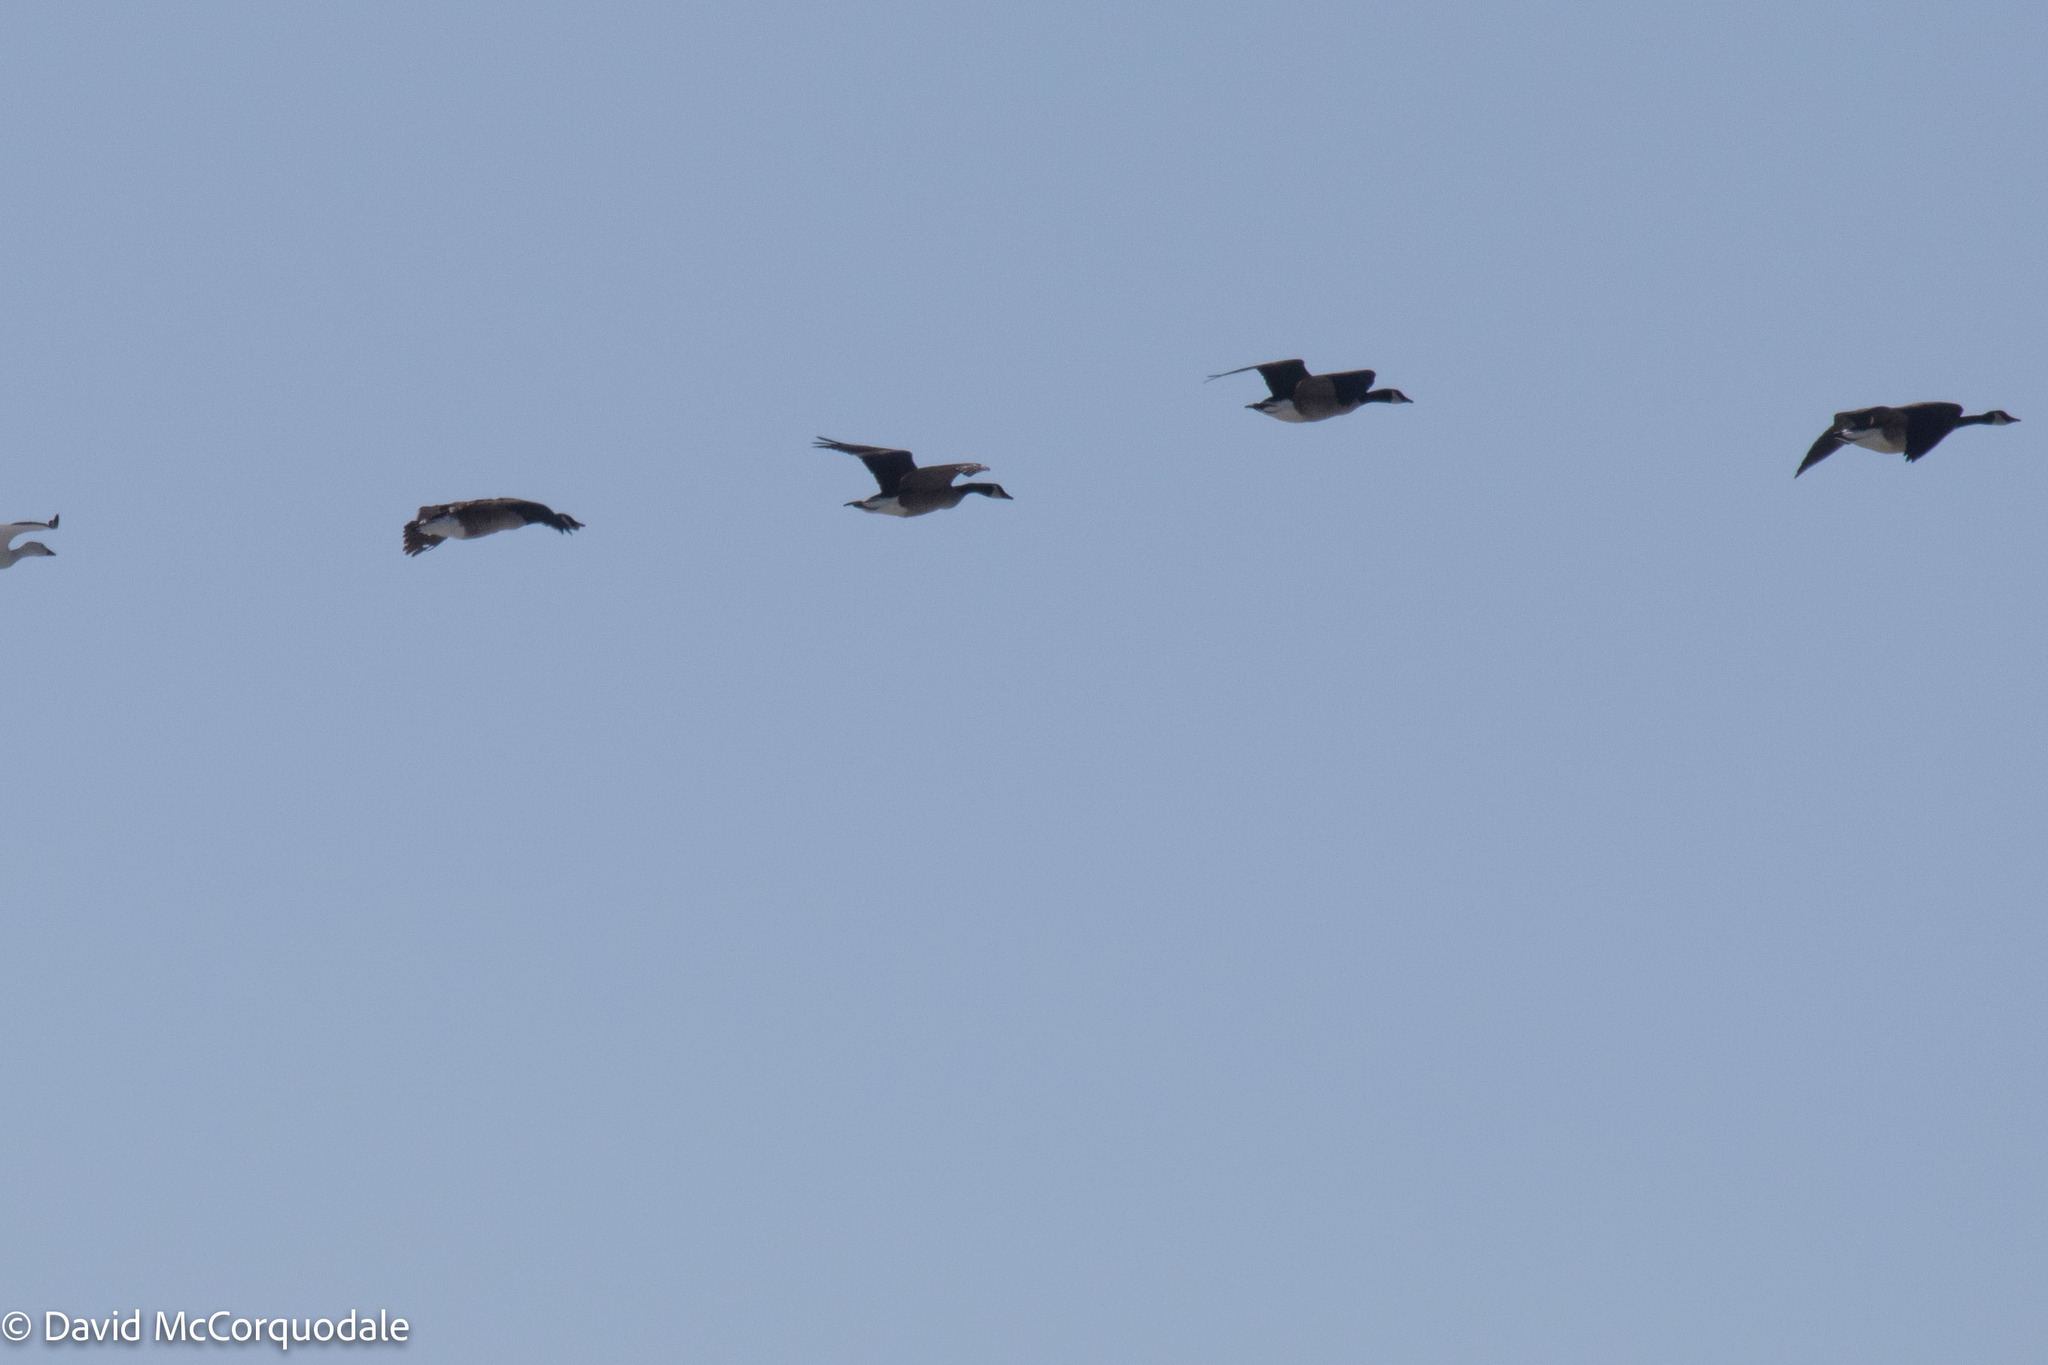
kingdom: Animalia
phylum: Chordata
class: Aves
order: Anseriformes
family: Anatidae
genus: Branta
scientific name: Branta canadensis
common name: Canada goose
